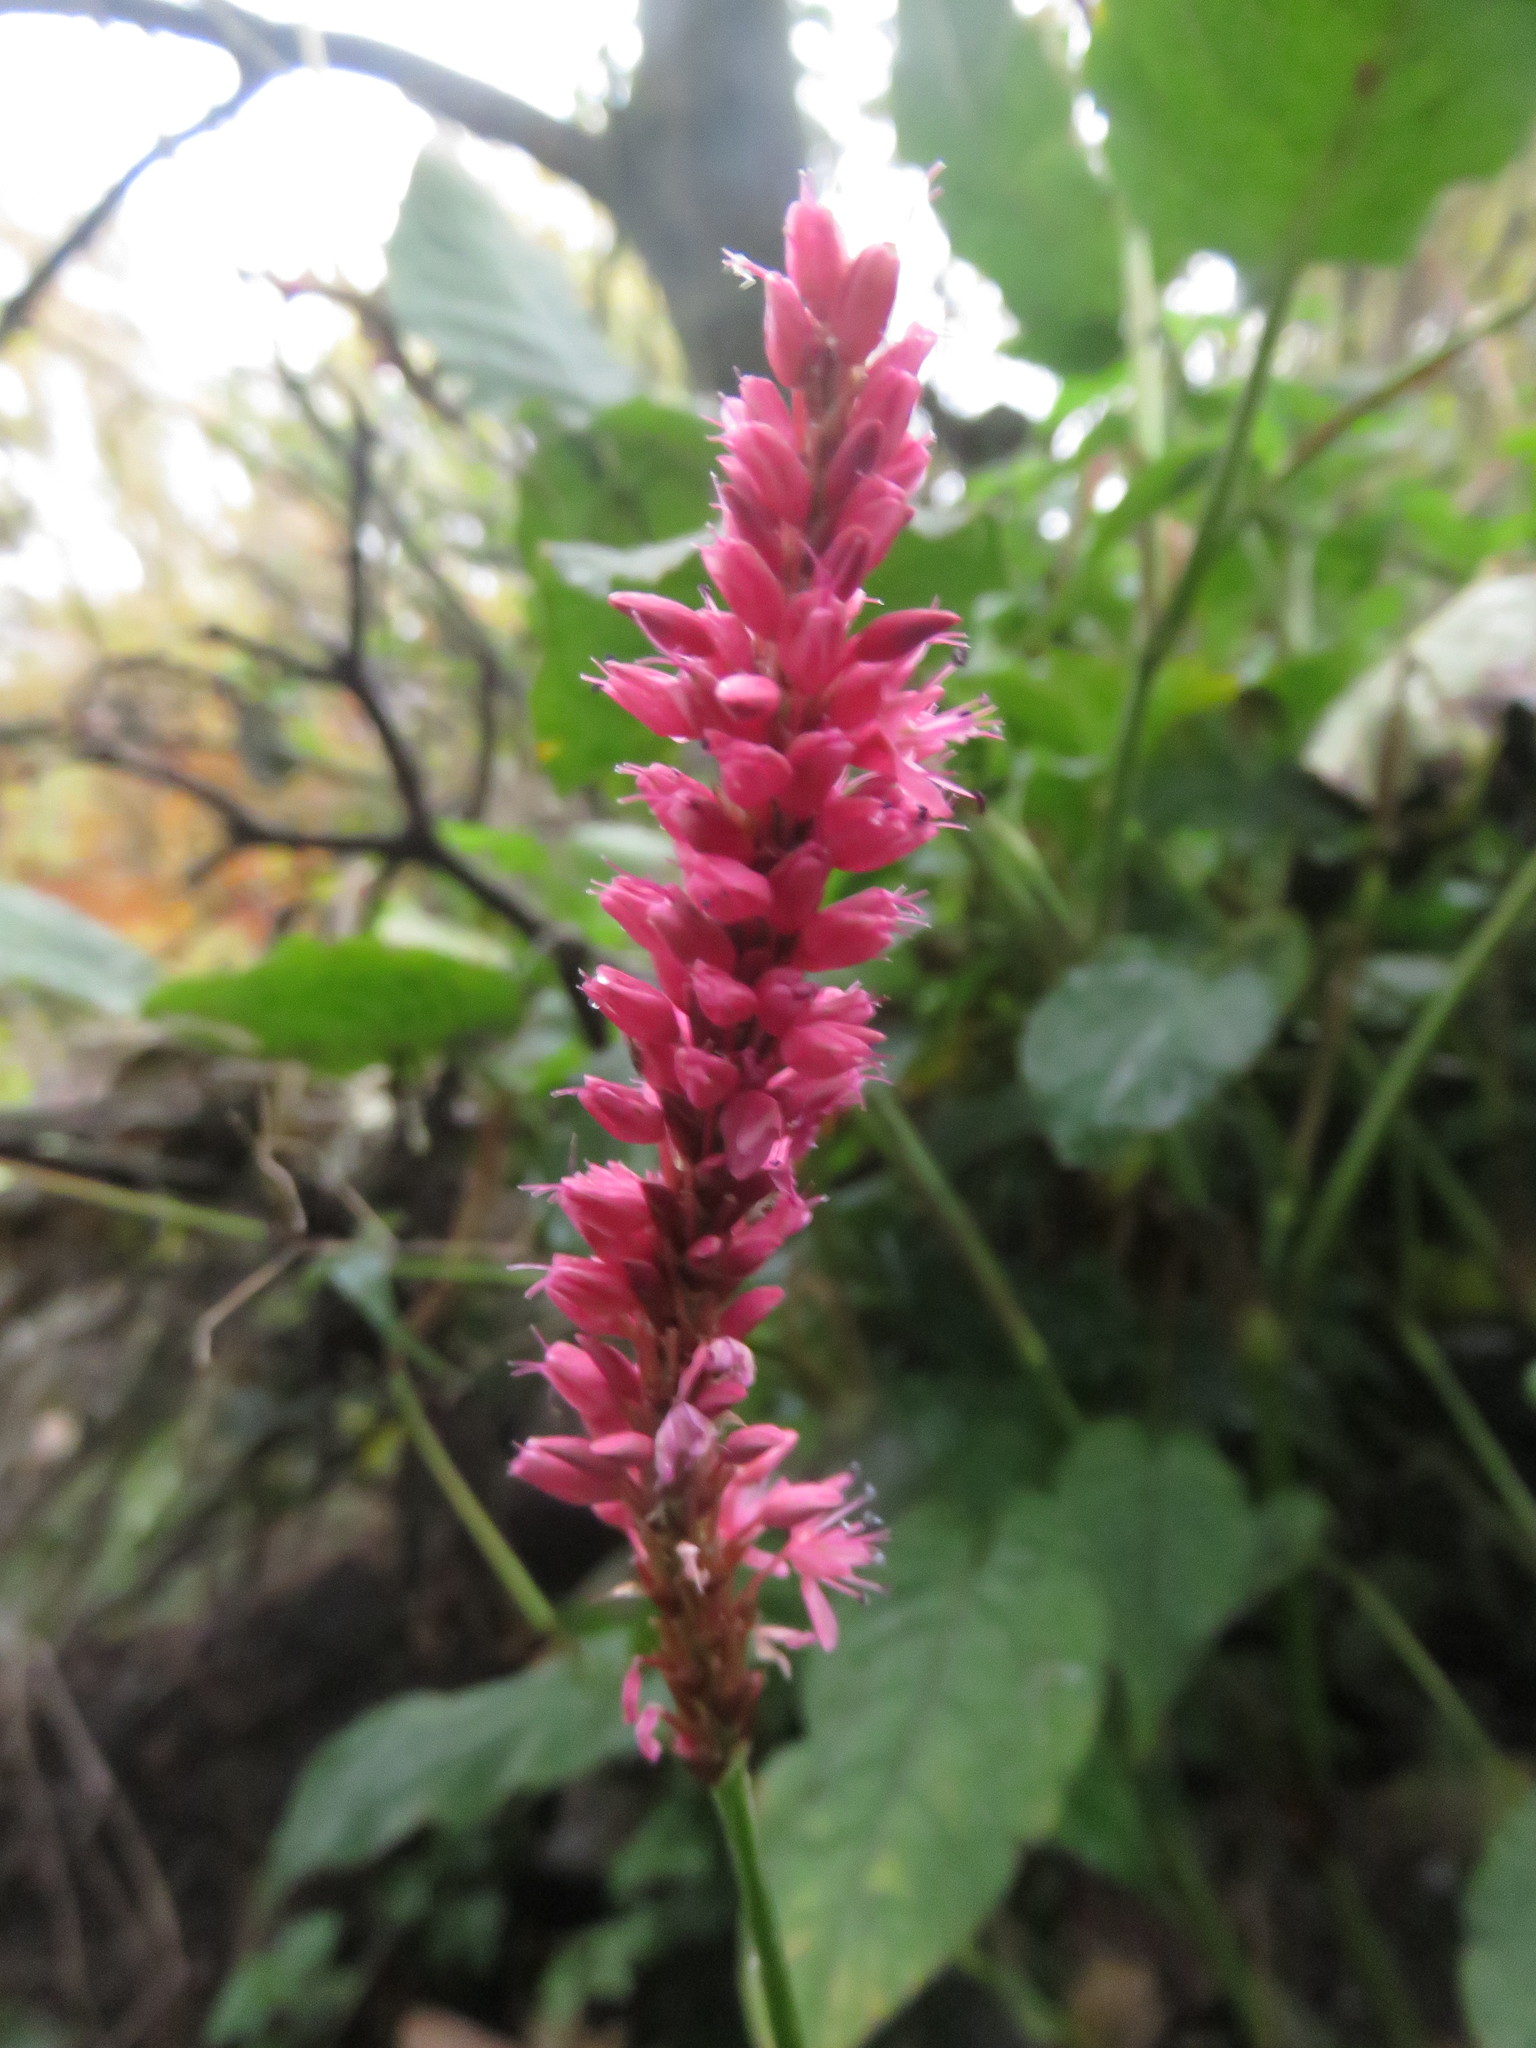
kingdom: Plantae
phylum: Tracheophyta
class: Magnoliopsida
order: Caryophyllales
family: Polygonaceae
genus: Bistorta
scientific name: Bistorta amplexicaulis
